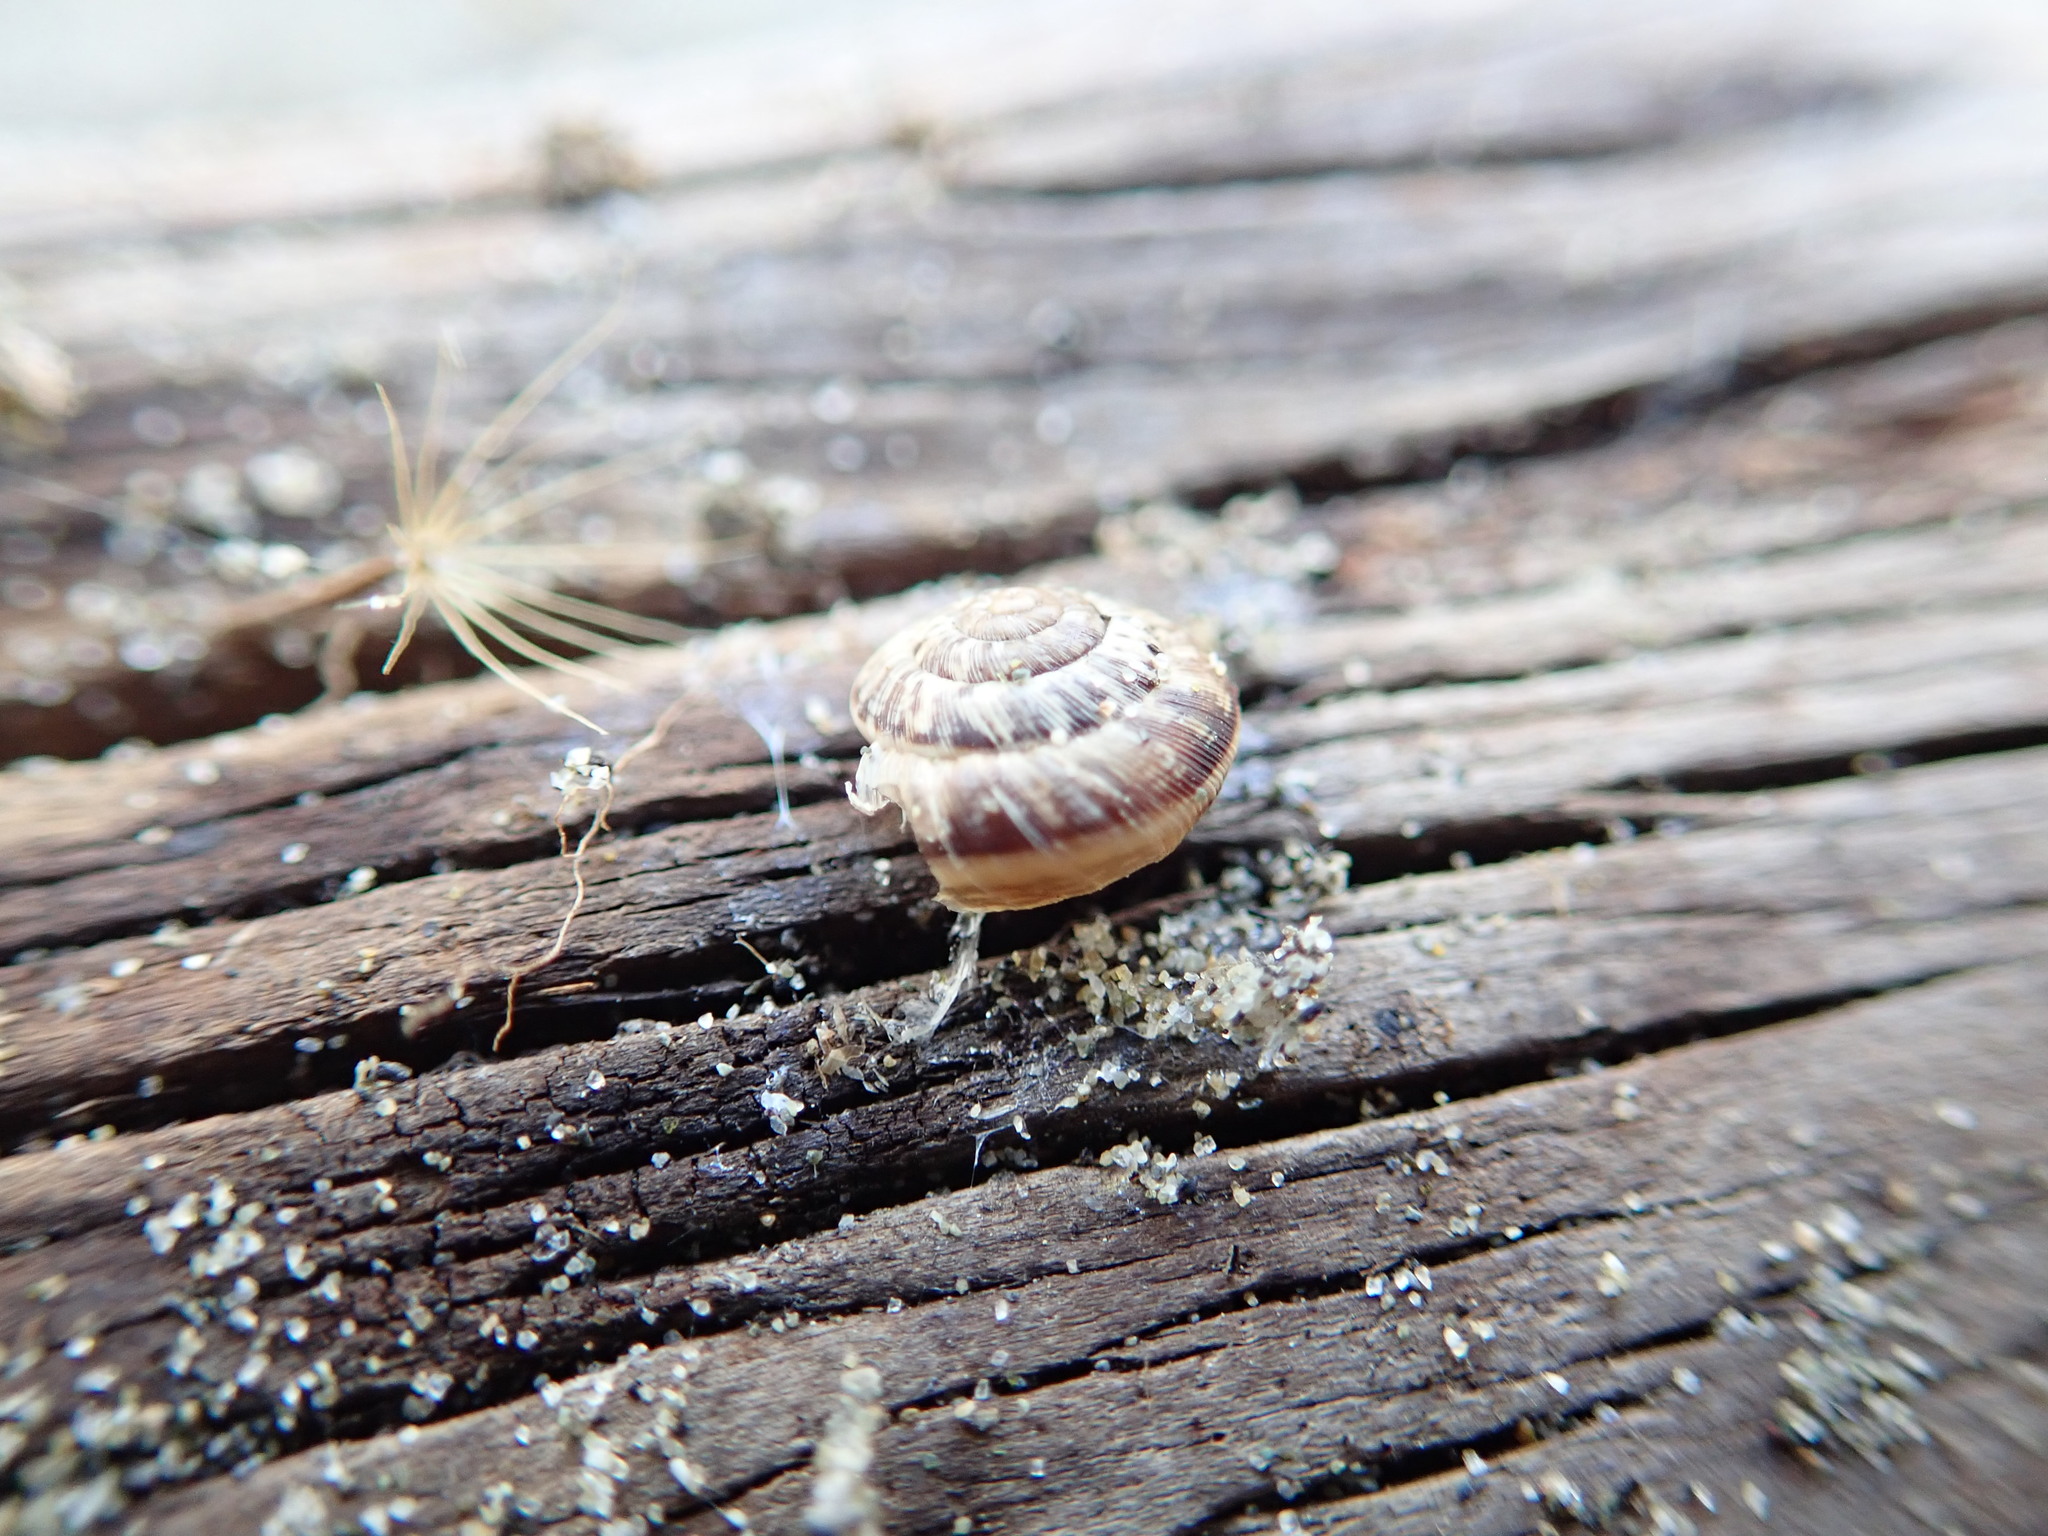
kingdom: Animalia
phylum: Mollusca
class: Gastropoda
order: Stylommatophora
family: Geomitridae
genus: Xeroplexa
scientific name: Xeroplexa intersecta
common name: Wrinkled snail
